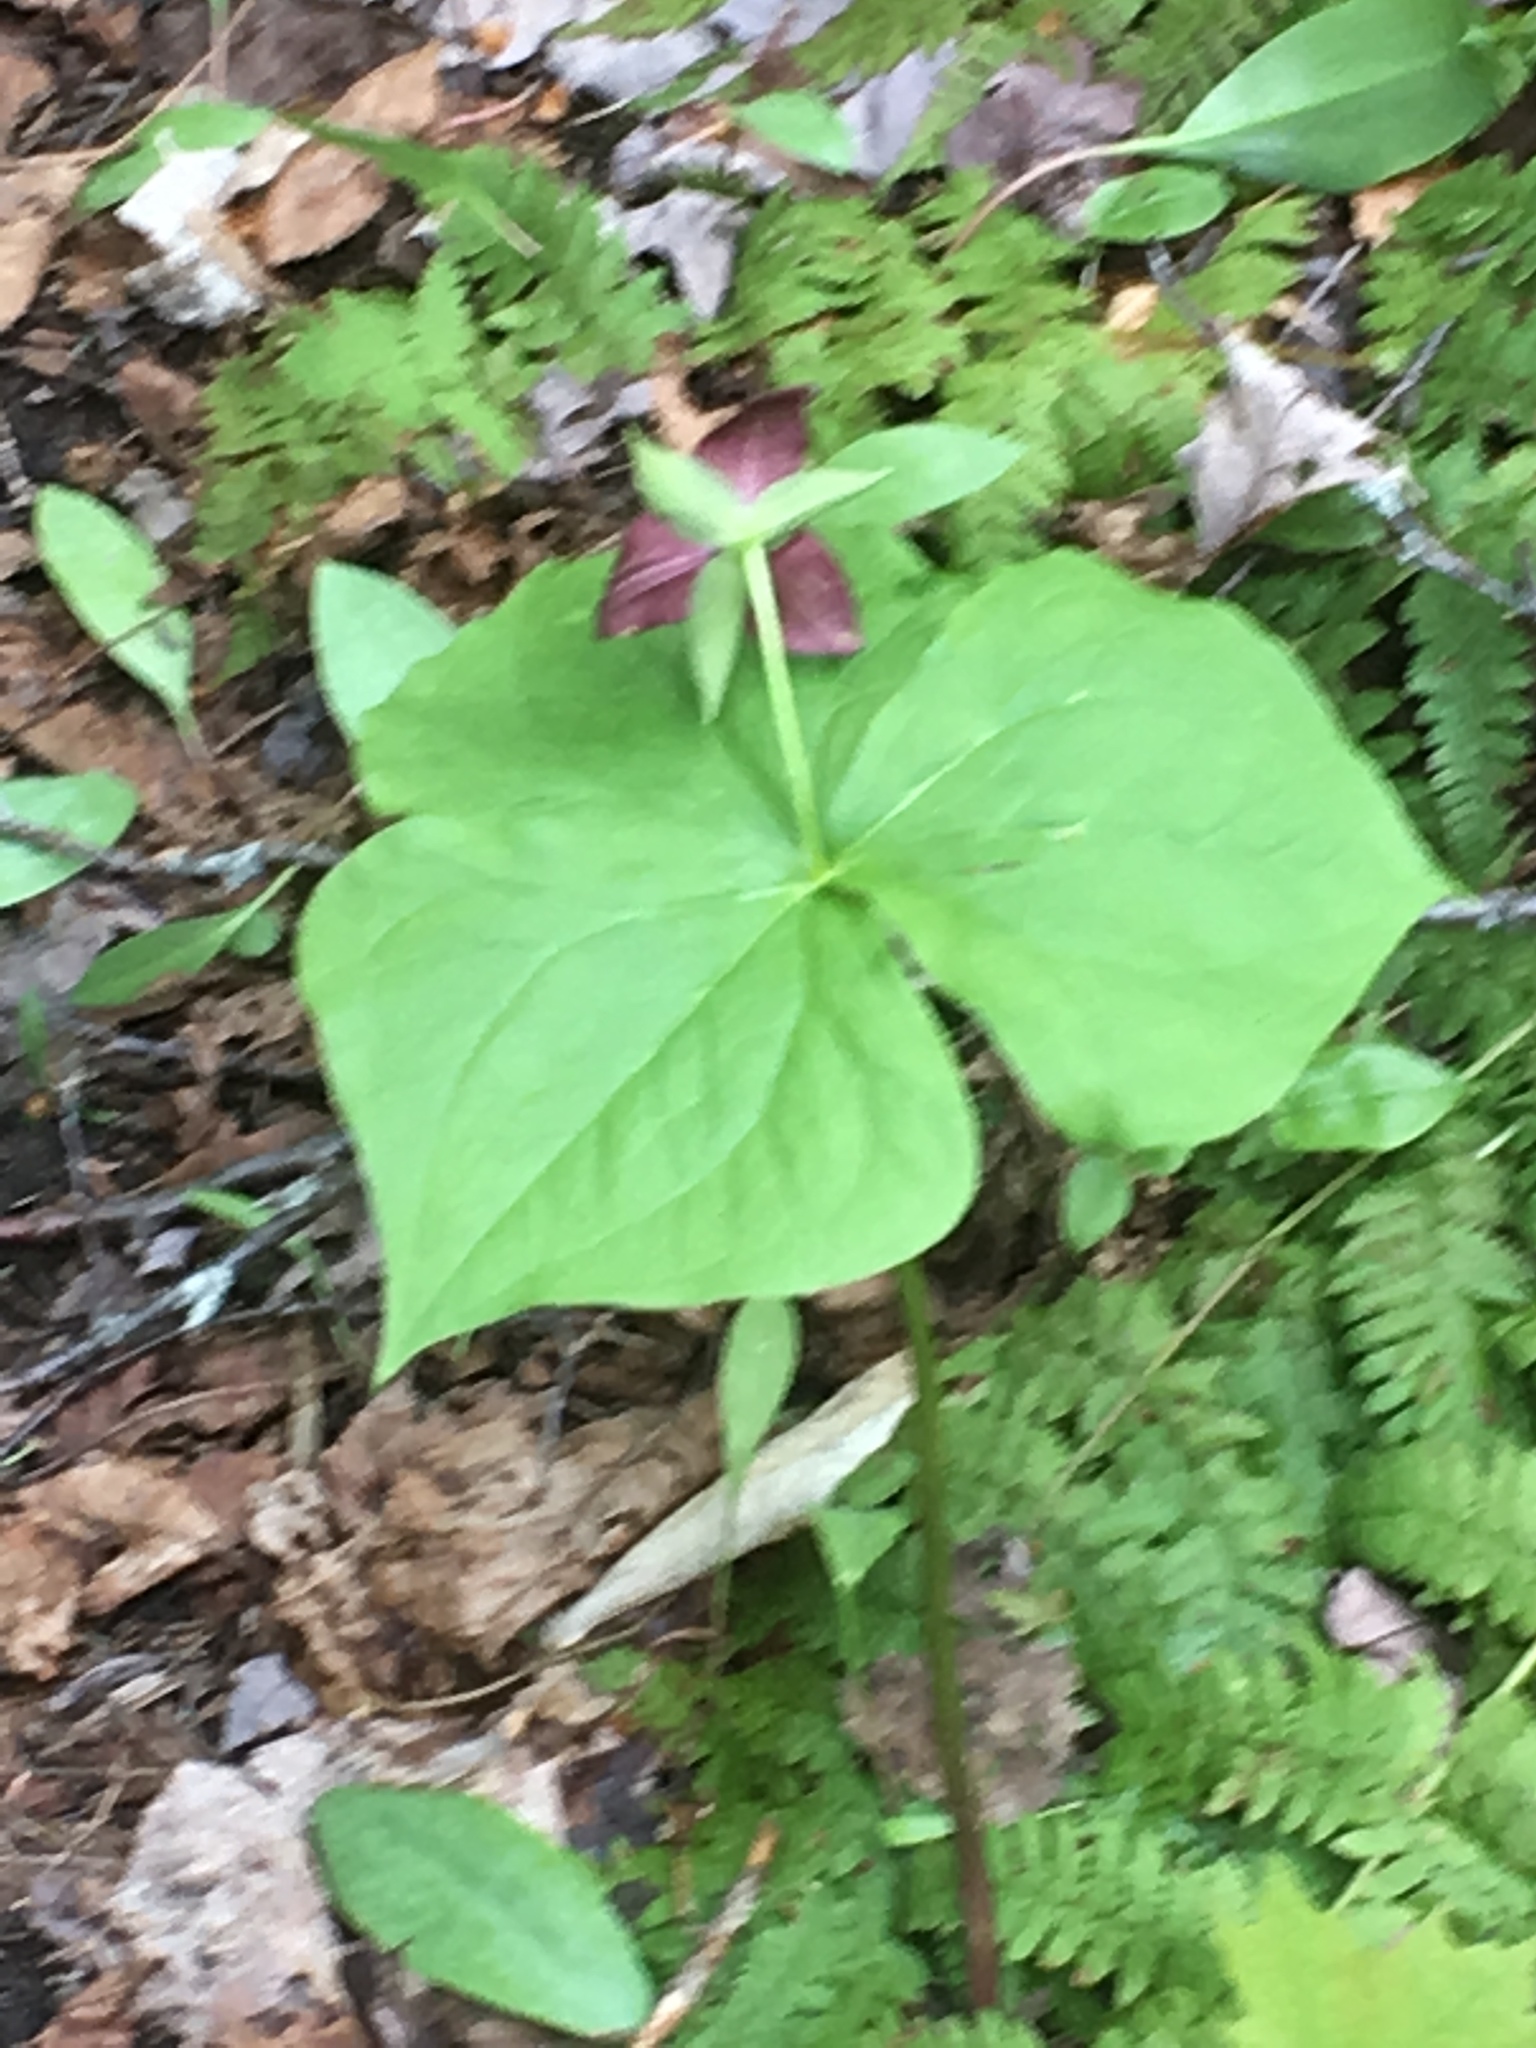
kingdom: Plantae
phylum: Tracheophyta
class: Liliopsida
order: Liliales
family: Melanthiaceae
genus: Trillium
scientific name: Trillium erectum
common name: Purple trillium
